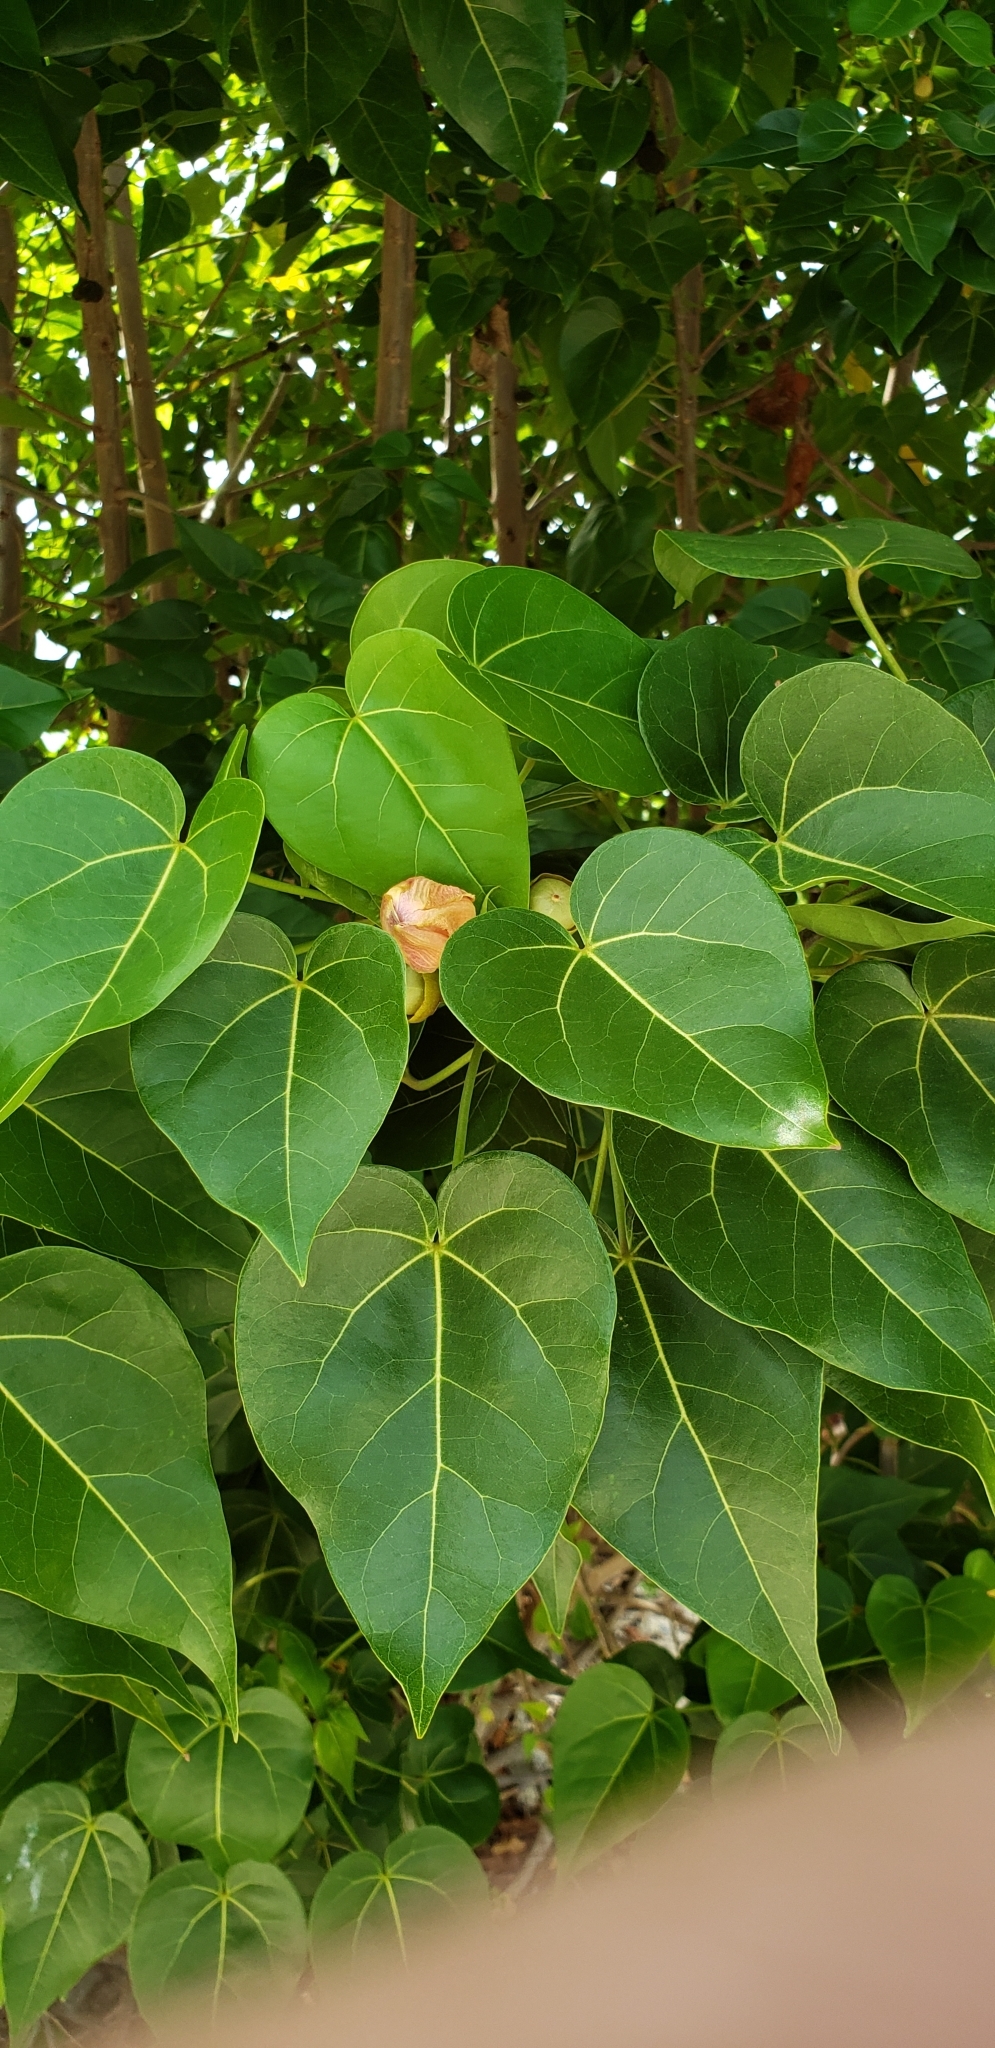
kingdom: Plantae
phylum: Tracheophyta
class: Magnoliopsida
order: Malvales
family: Malvaceae
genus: Thespesia
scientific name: Thespesia populnea
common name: Seaside mahoe
